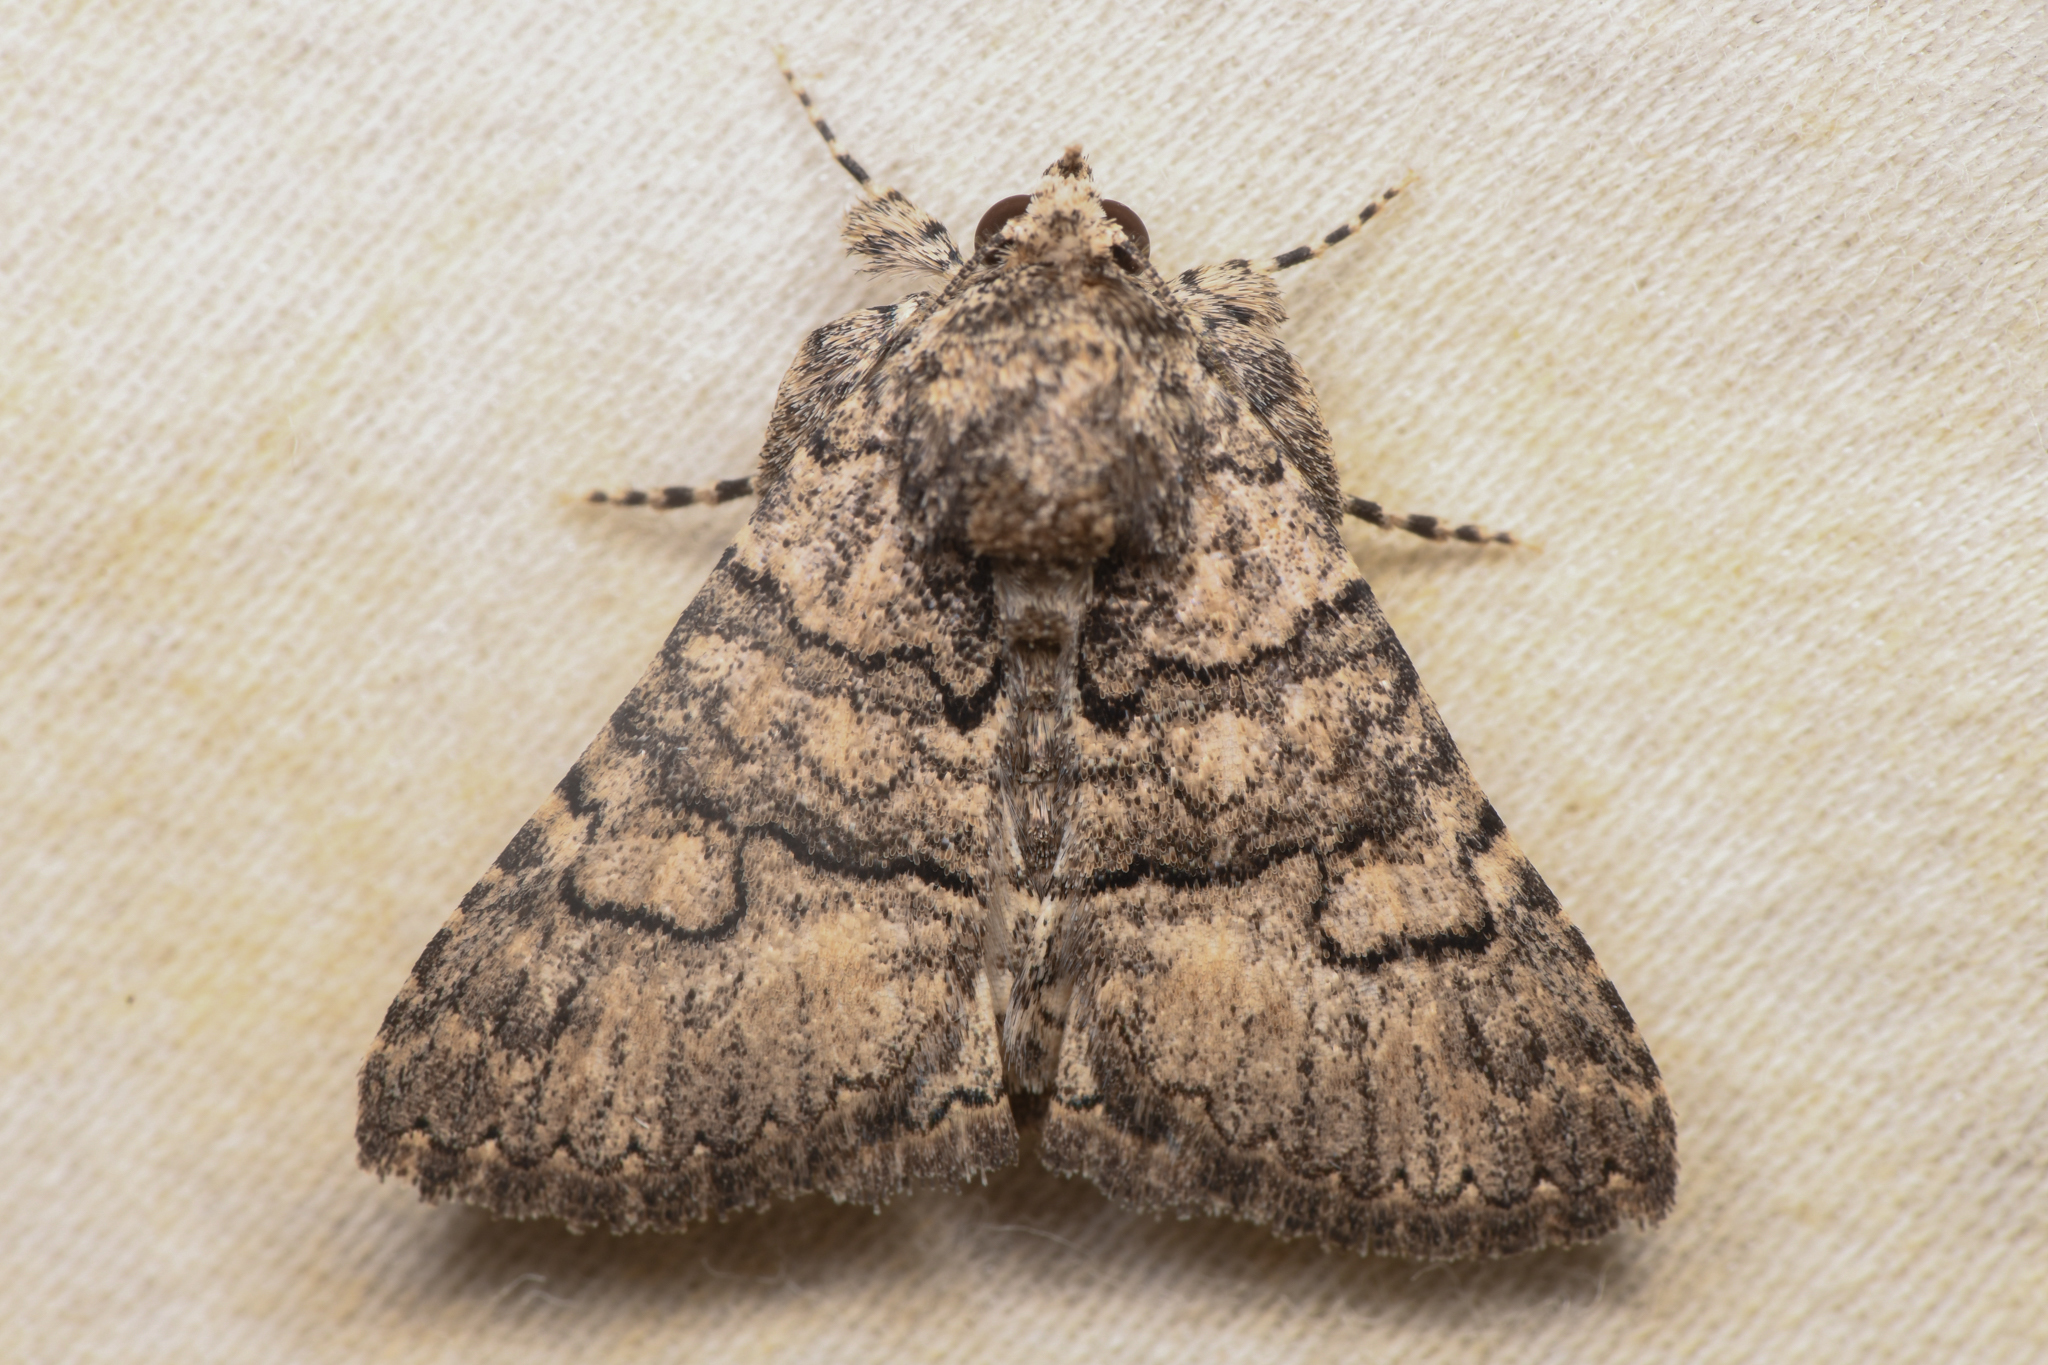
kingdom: Animalia
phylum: Arthropoda
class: Insecta
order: Lepidoptera
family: Erebidae
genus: Elousa
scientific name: Elousa mima
